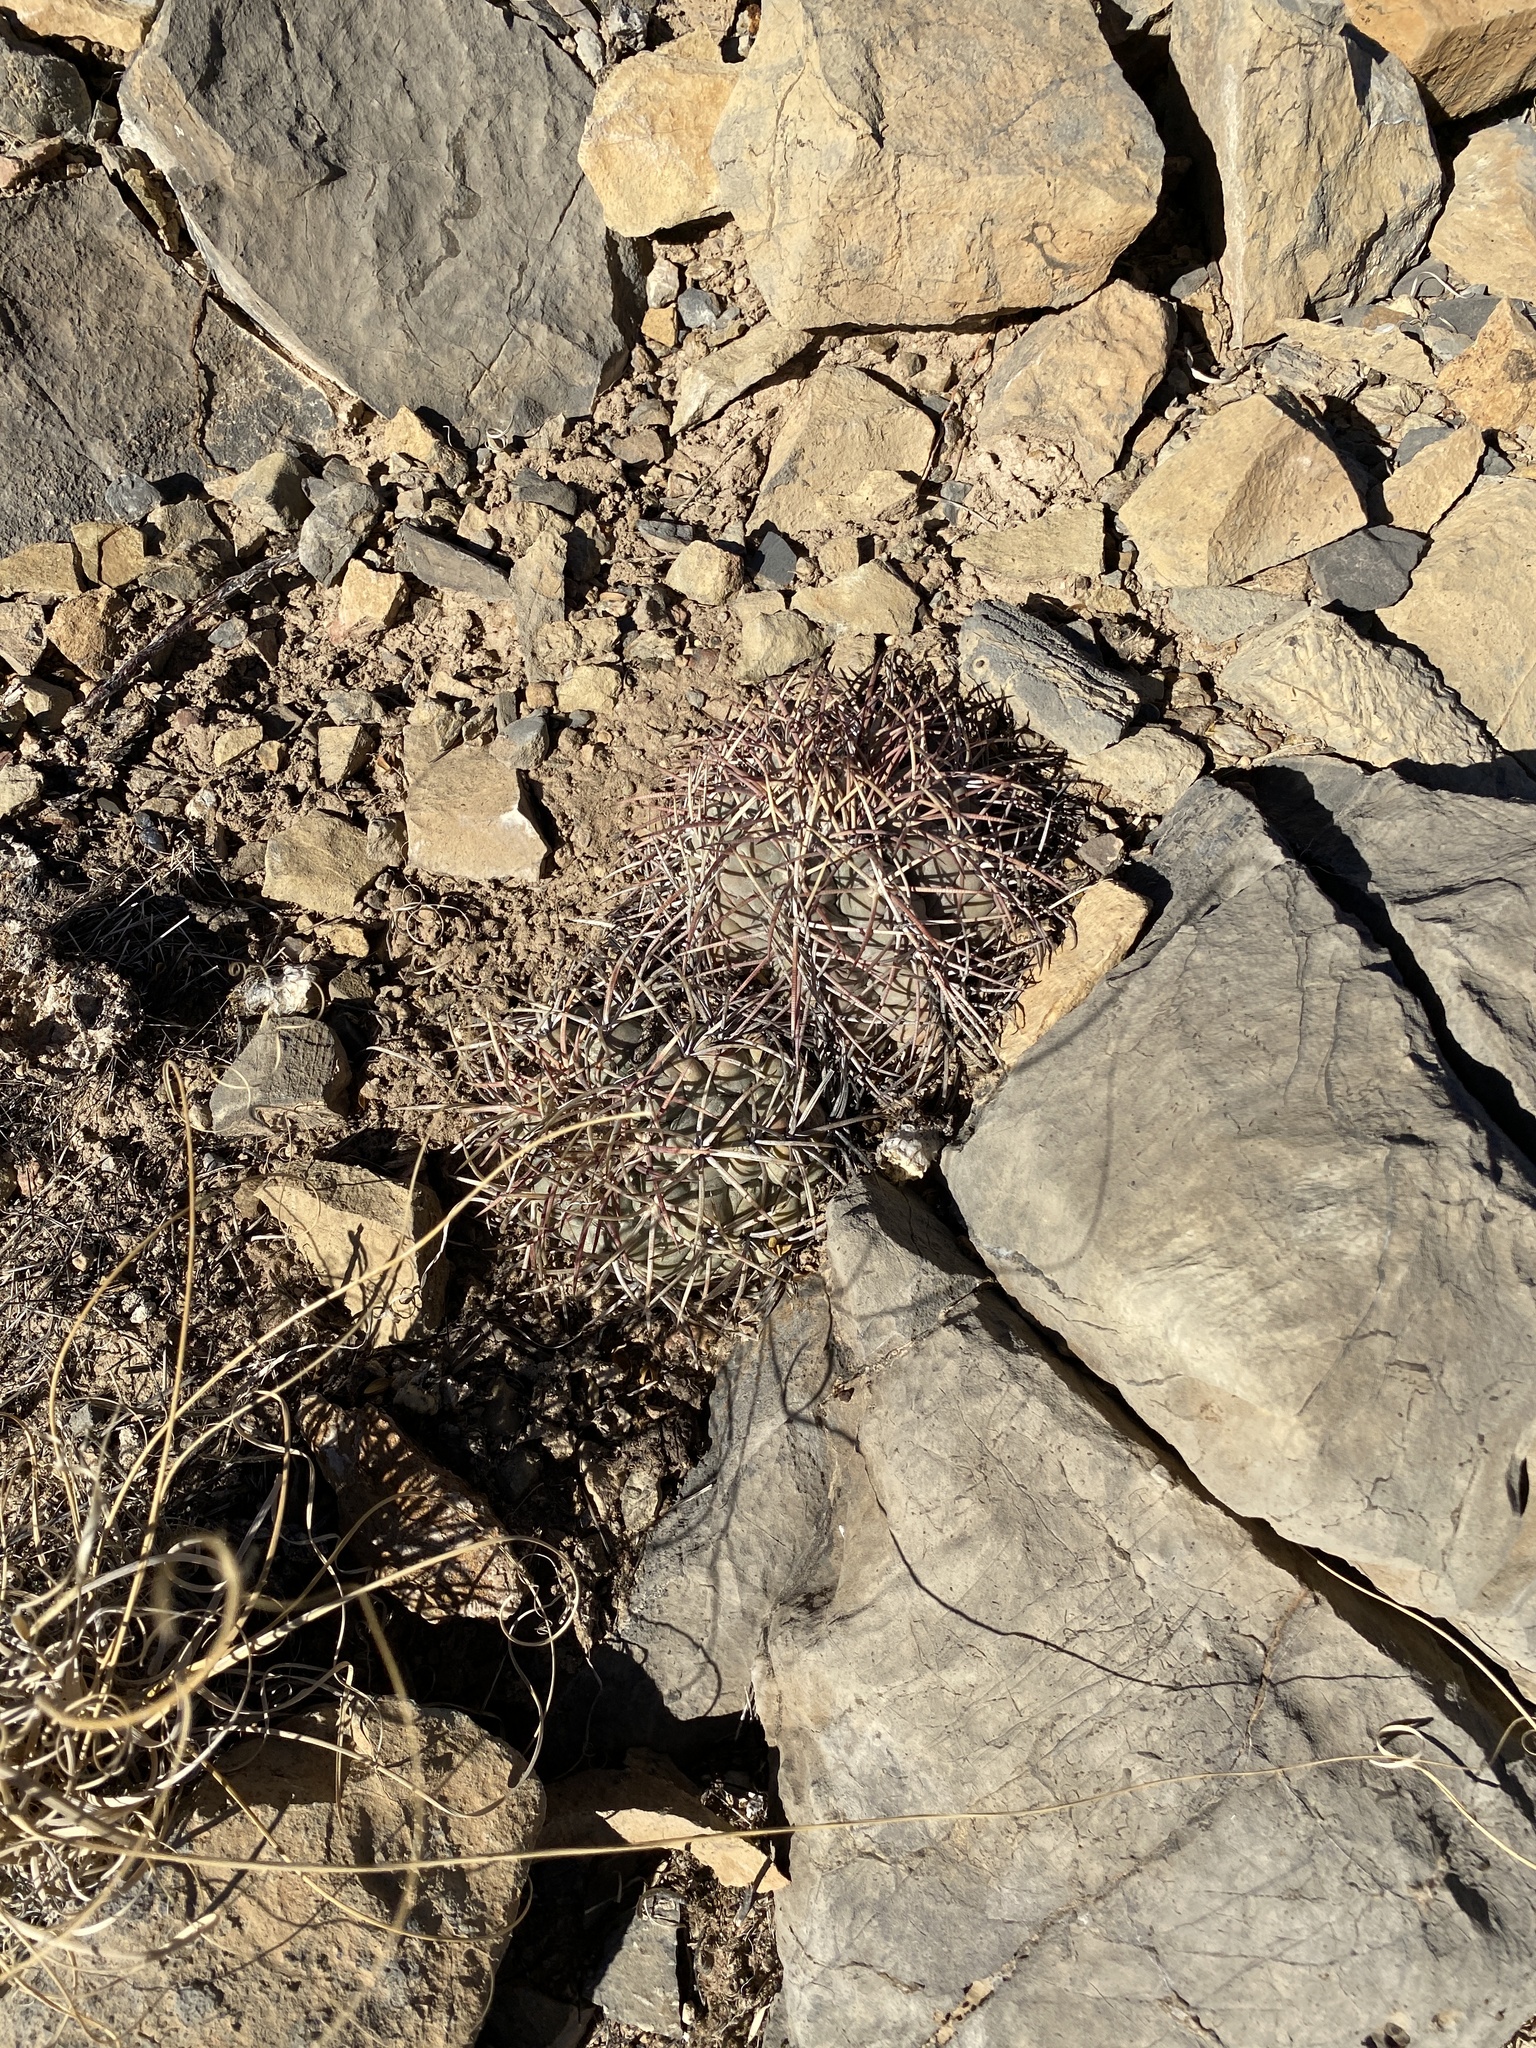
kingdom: Plantae
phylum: Tracheophyta
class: Magnoliopsida
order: Caryophyllales
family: Cactaceae
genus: Echinocactus
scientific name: Echinocactus horizonthalonius
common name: Devilshead
